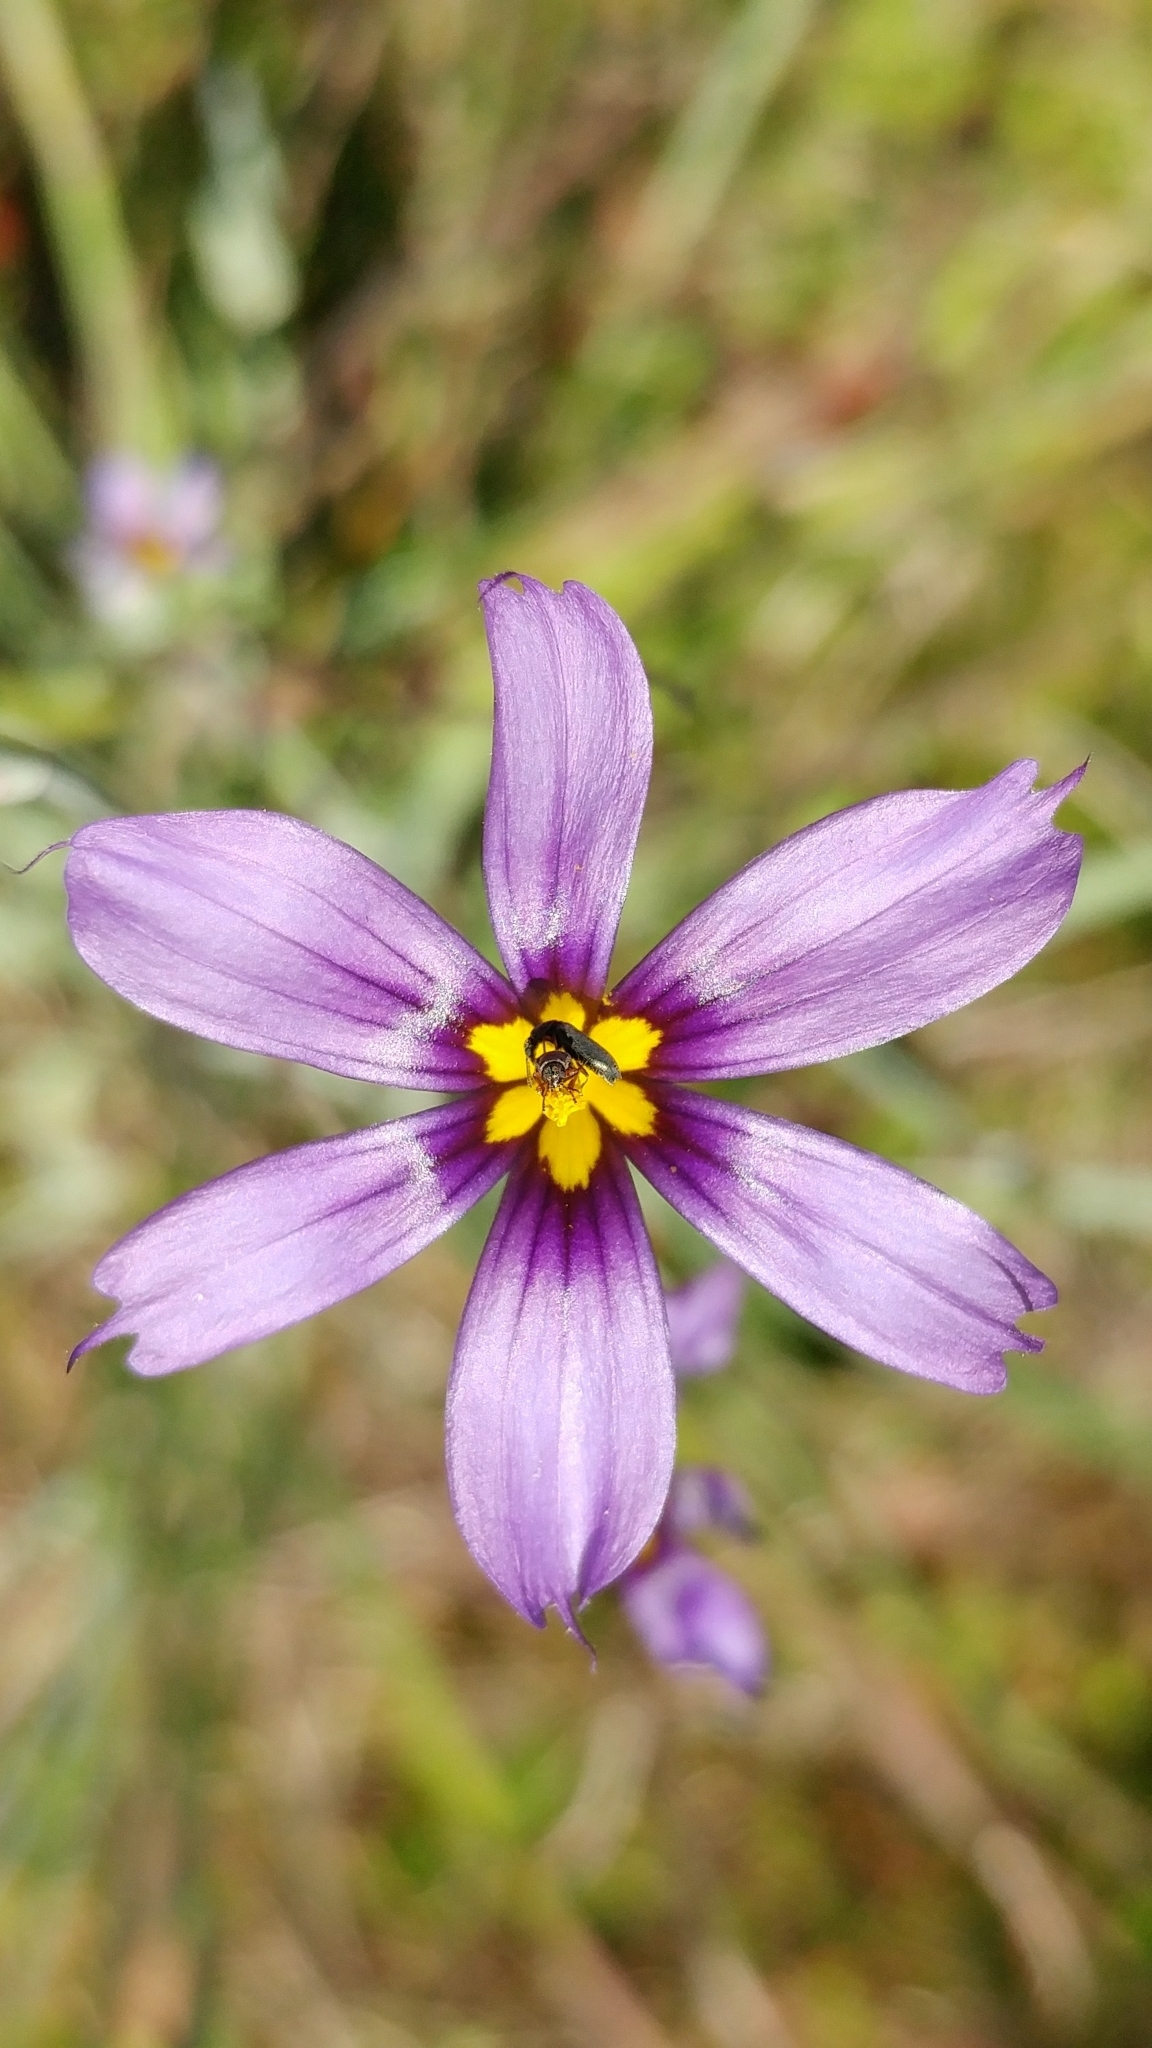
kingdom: Plantae
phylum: Tracheophyta
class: Liliopsida
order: Asparagales
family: Iridaceae
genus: Sisyrinchium
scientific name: Sisyrinchium bellum
